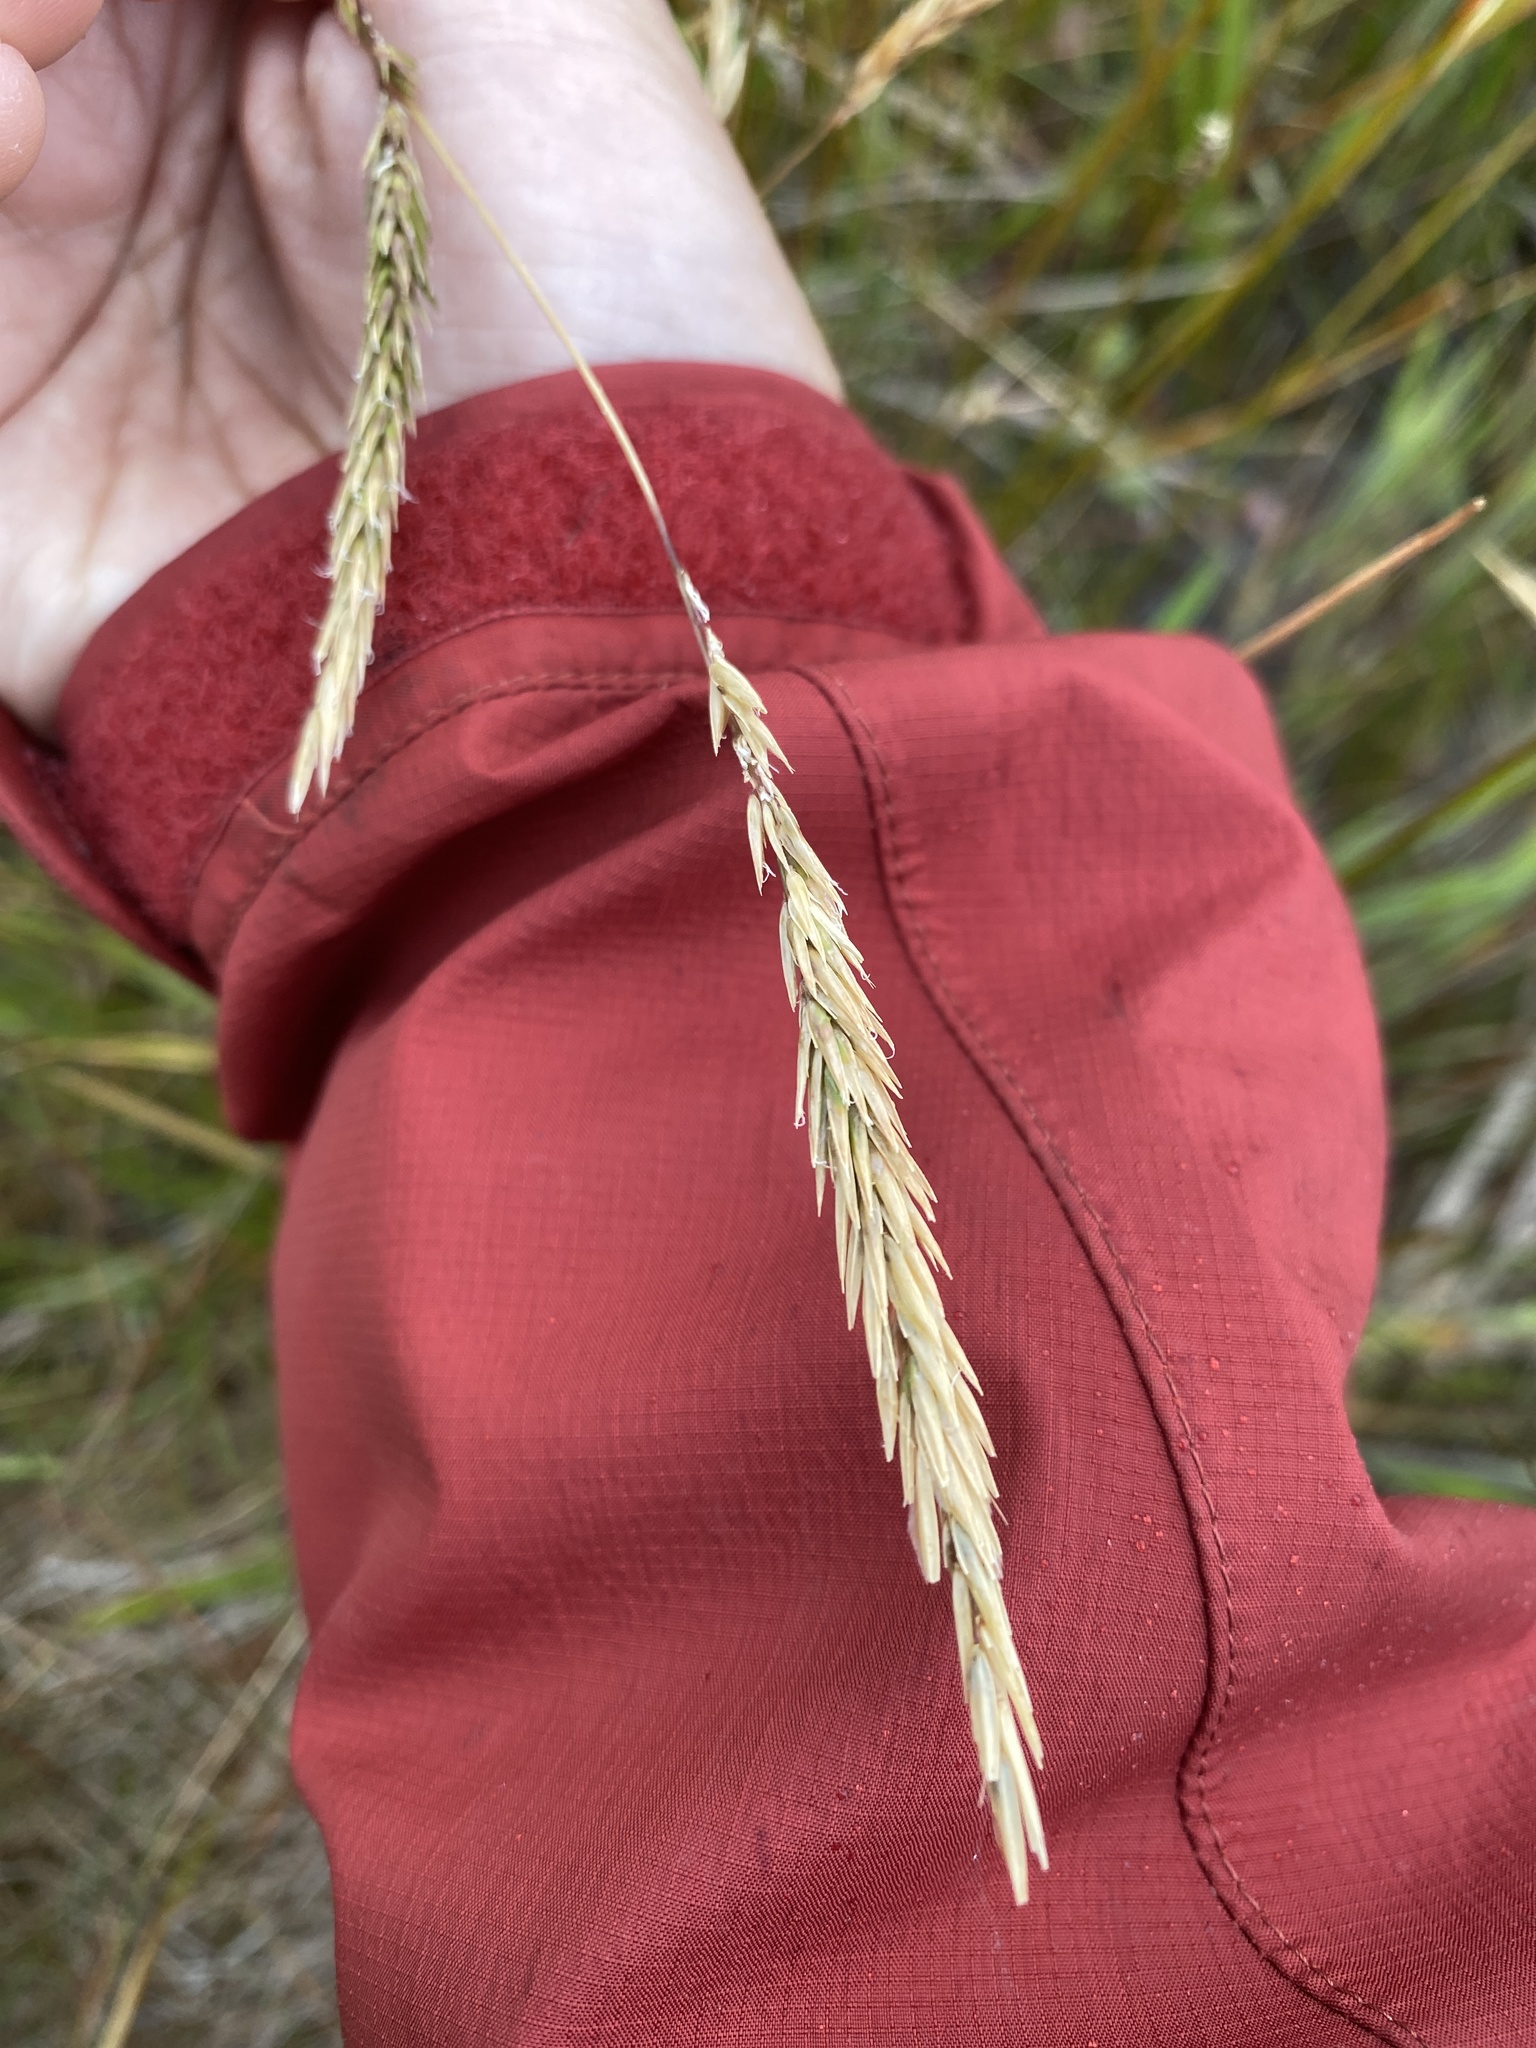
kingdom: Plantae
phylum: Tracheophyta
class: Liliopsida
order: Poales
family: Poaceae
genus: Anthoxanthum
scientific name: Anthoxanthum odoratum
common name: Sweet vernalgrass
